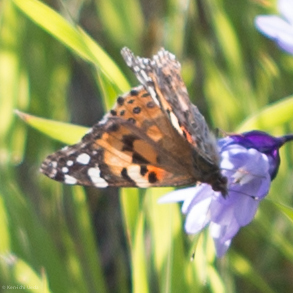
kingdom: Animalia
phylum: Arthropoda
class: Insecta
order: Lepidoptera
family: Nymphalidae
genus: Vanessa
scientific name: Vanessa cardui
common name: Painted lady
